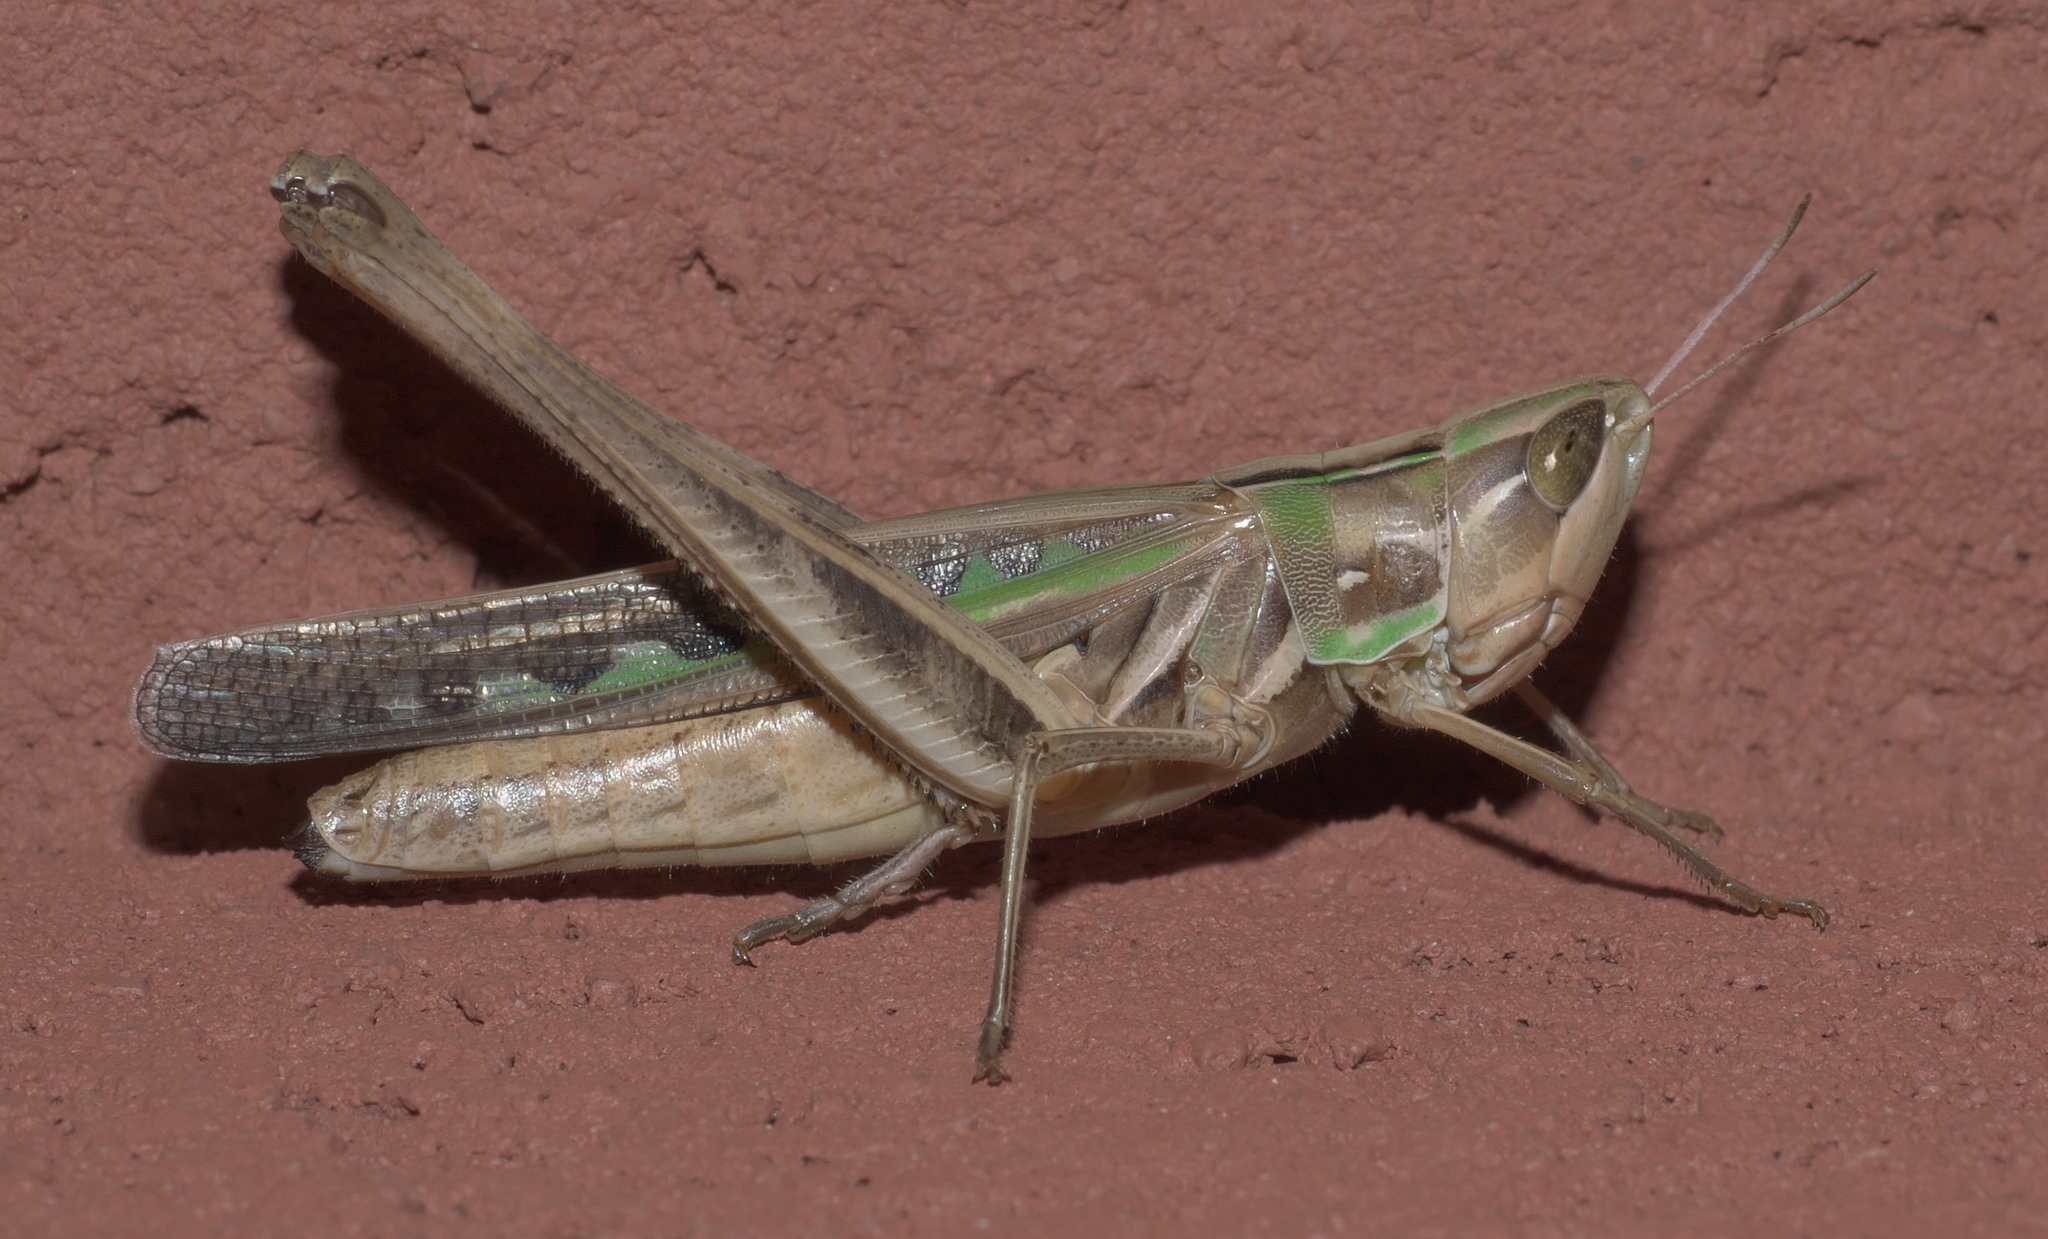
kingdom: Animalia
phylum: Arthropoda
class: Insecta
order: Orthoptera
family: Acrididae
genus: Syrbula
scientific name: Syrbula admirabilis
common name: Handsome grasshopper
